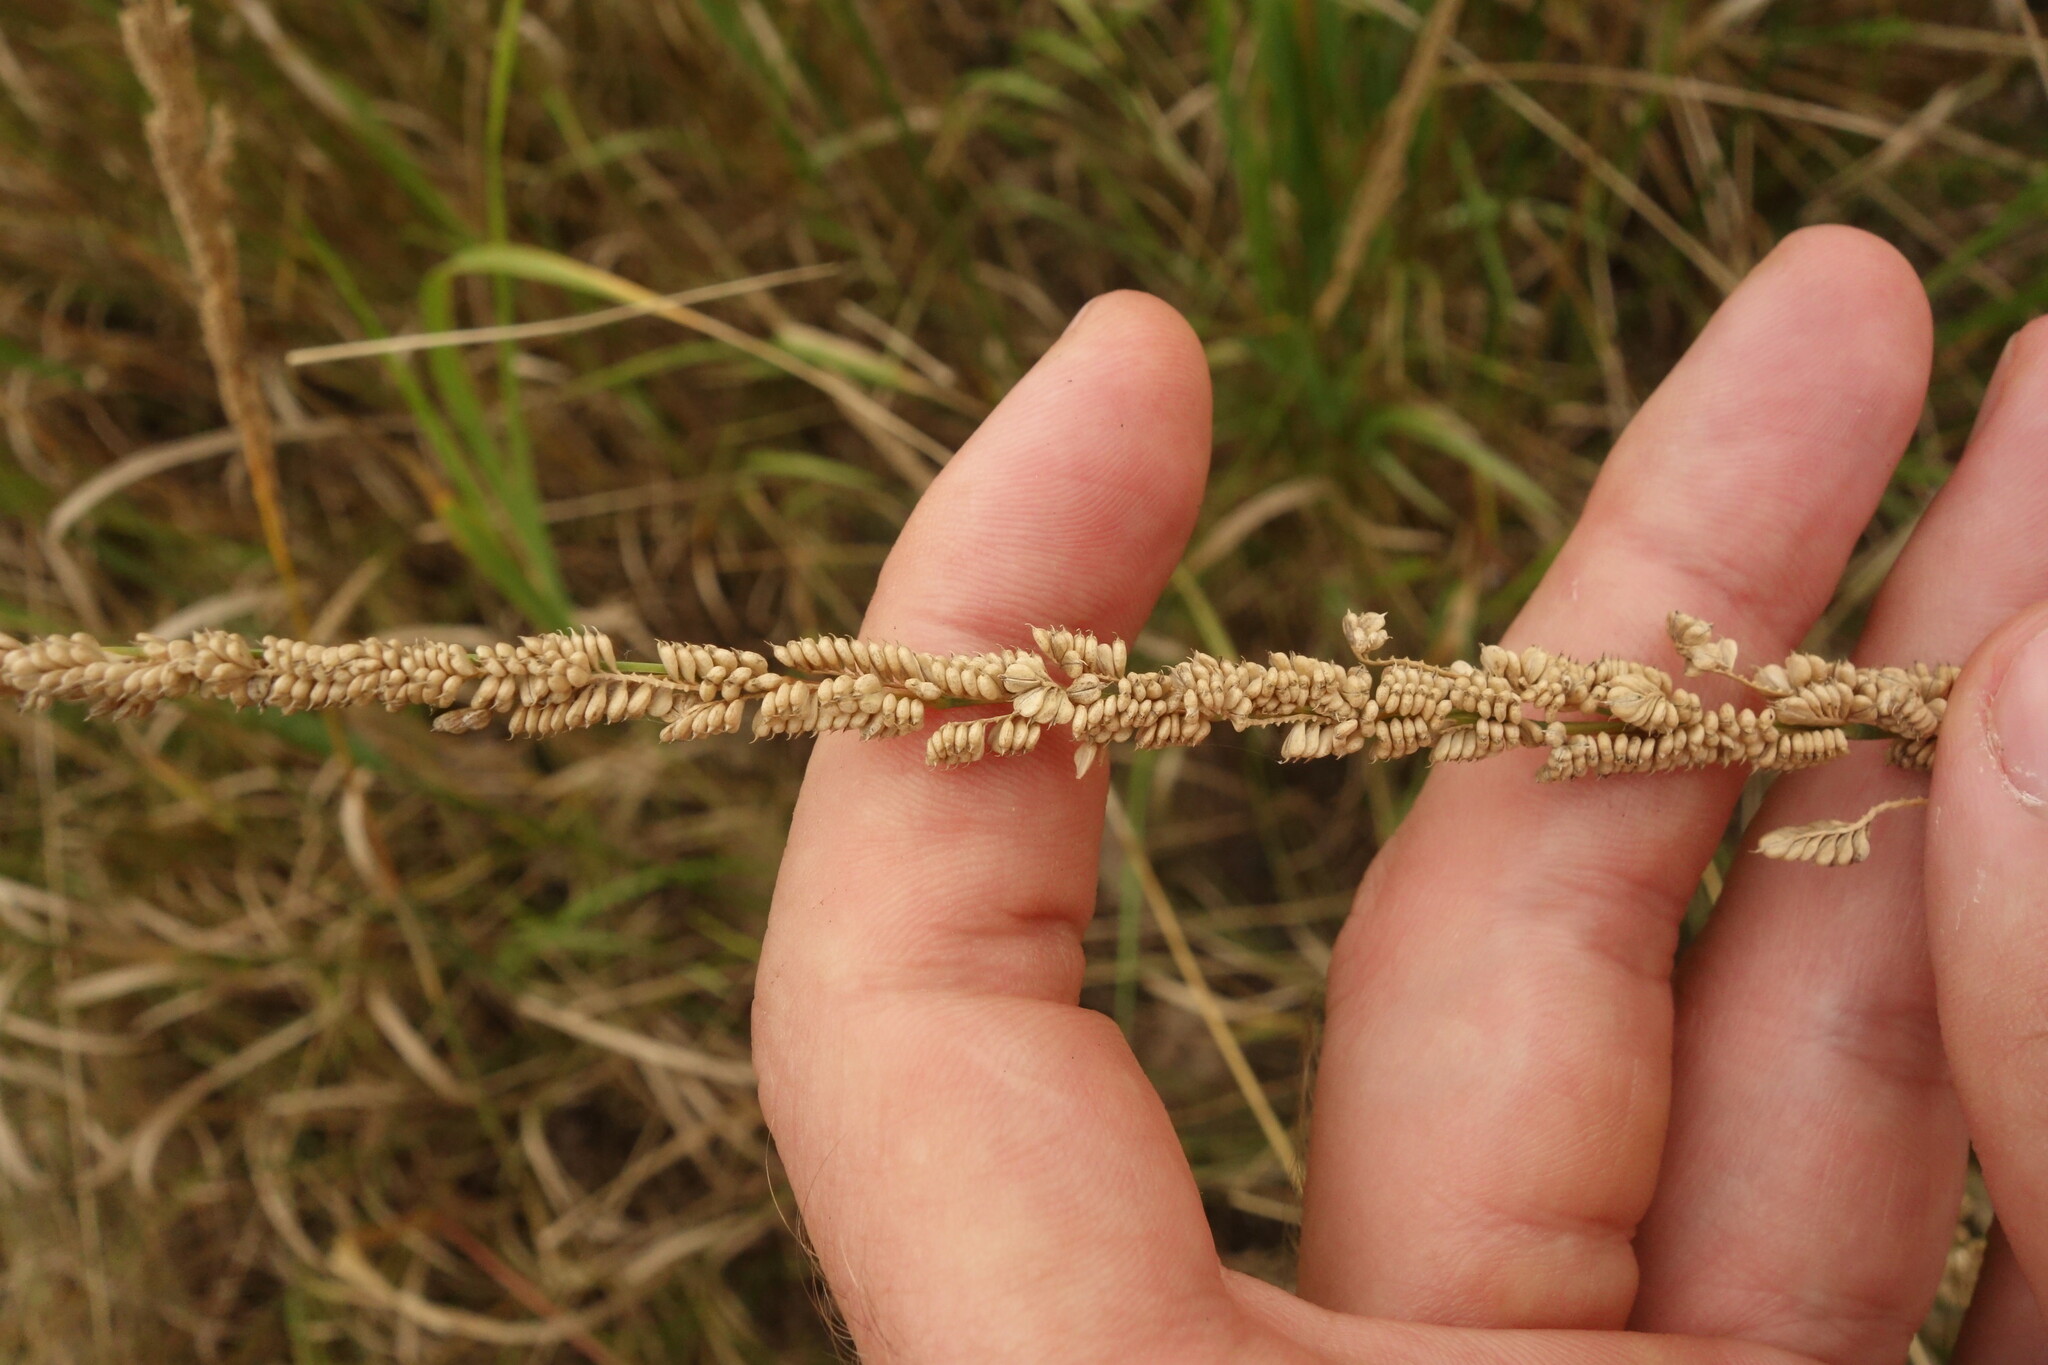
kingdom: Plantae
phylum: Tracheophyta
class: Liliopsida
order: Poales
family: Poaceae
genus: Beckmannia
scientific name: Beckmannia eruciformis
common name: European slough-grass
